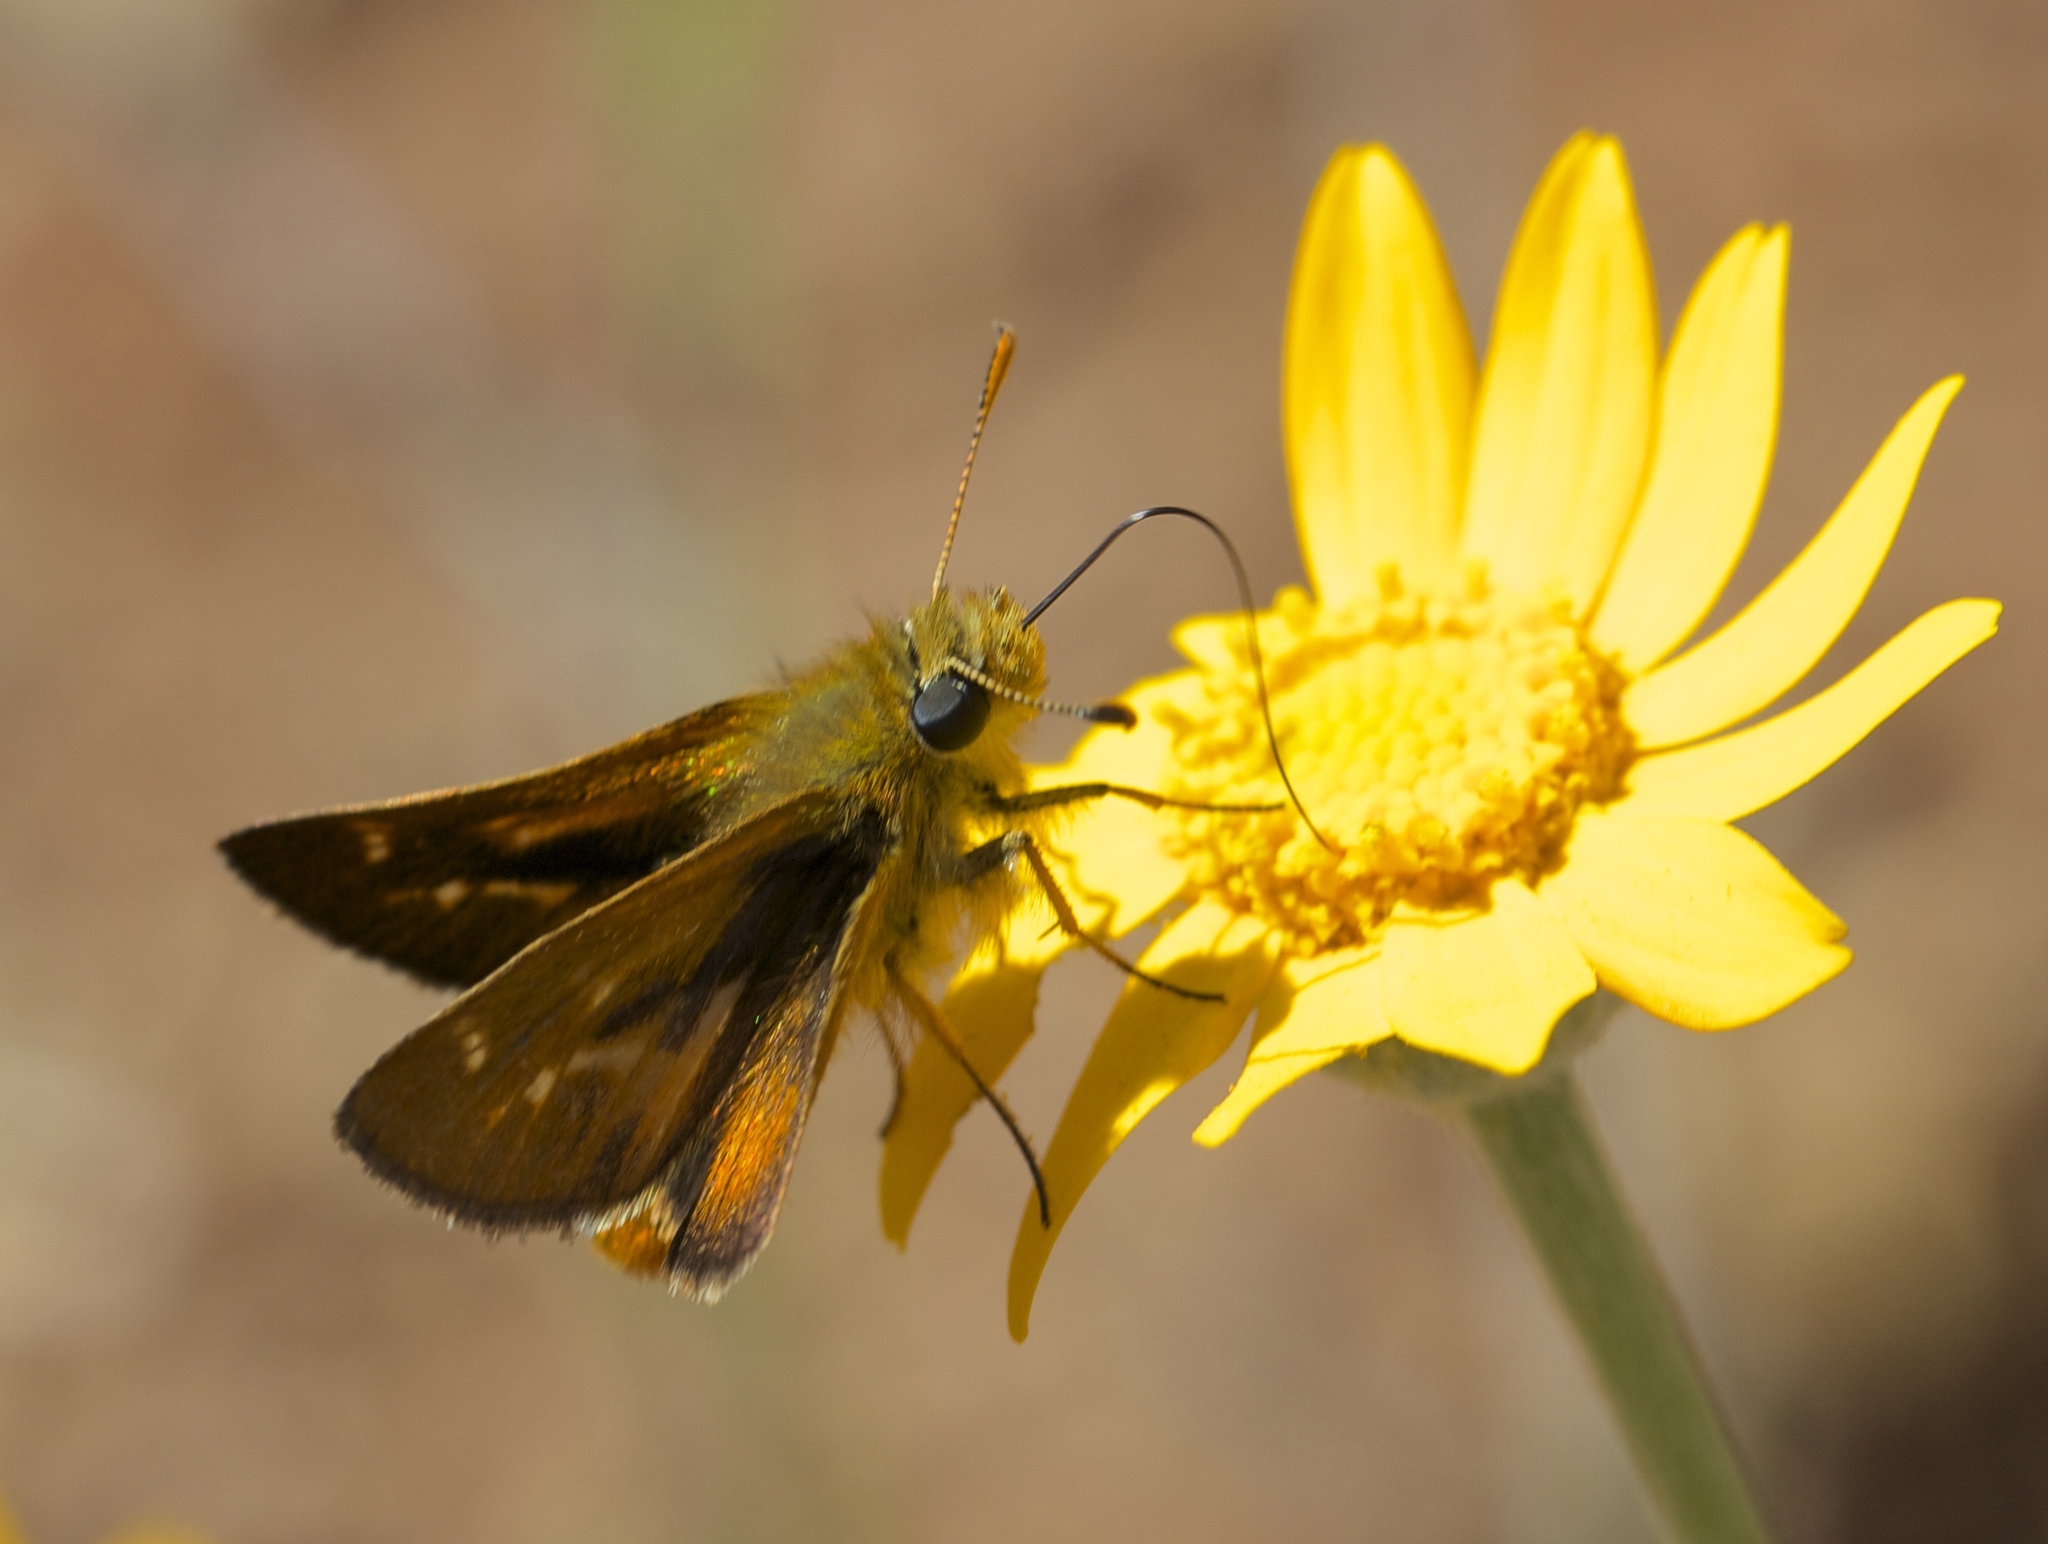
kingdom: Animalia
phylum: Arthropoda
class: Insecta
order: Lepidoptera
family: Hesperiidae
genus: Ochlodes
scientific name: Ochlodes agricola
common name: Rural skipper
